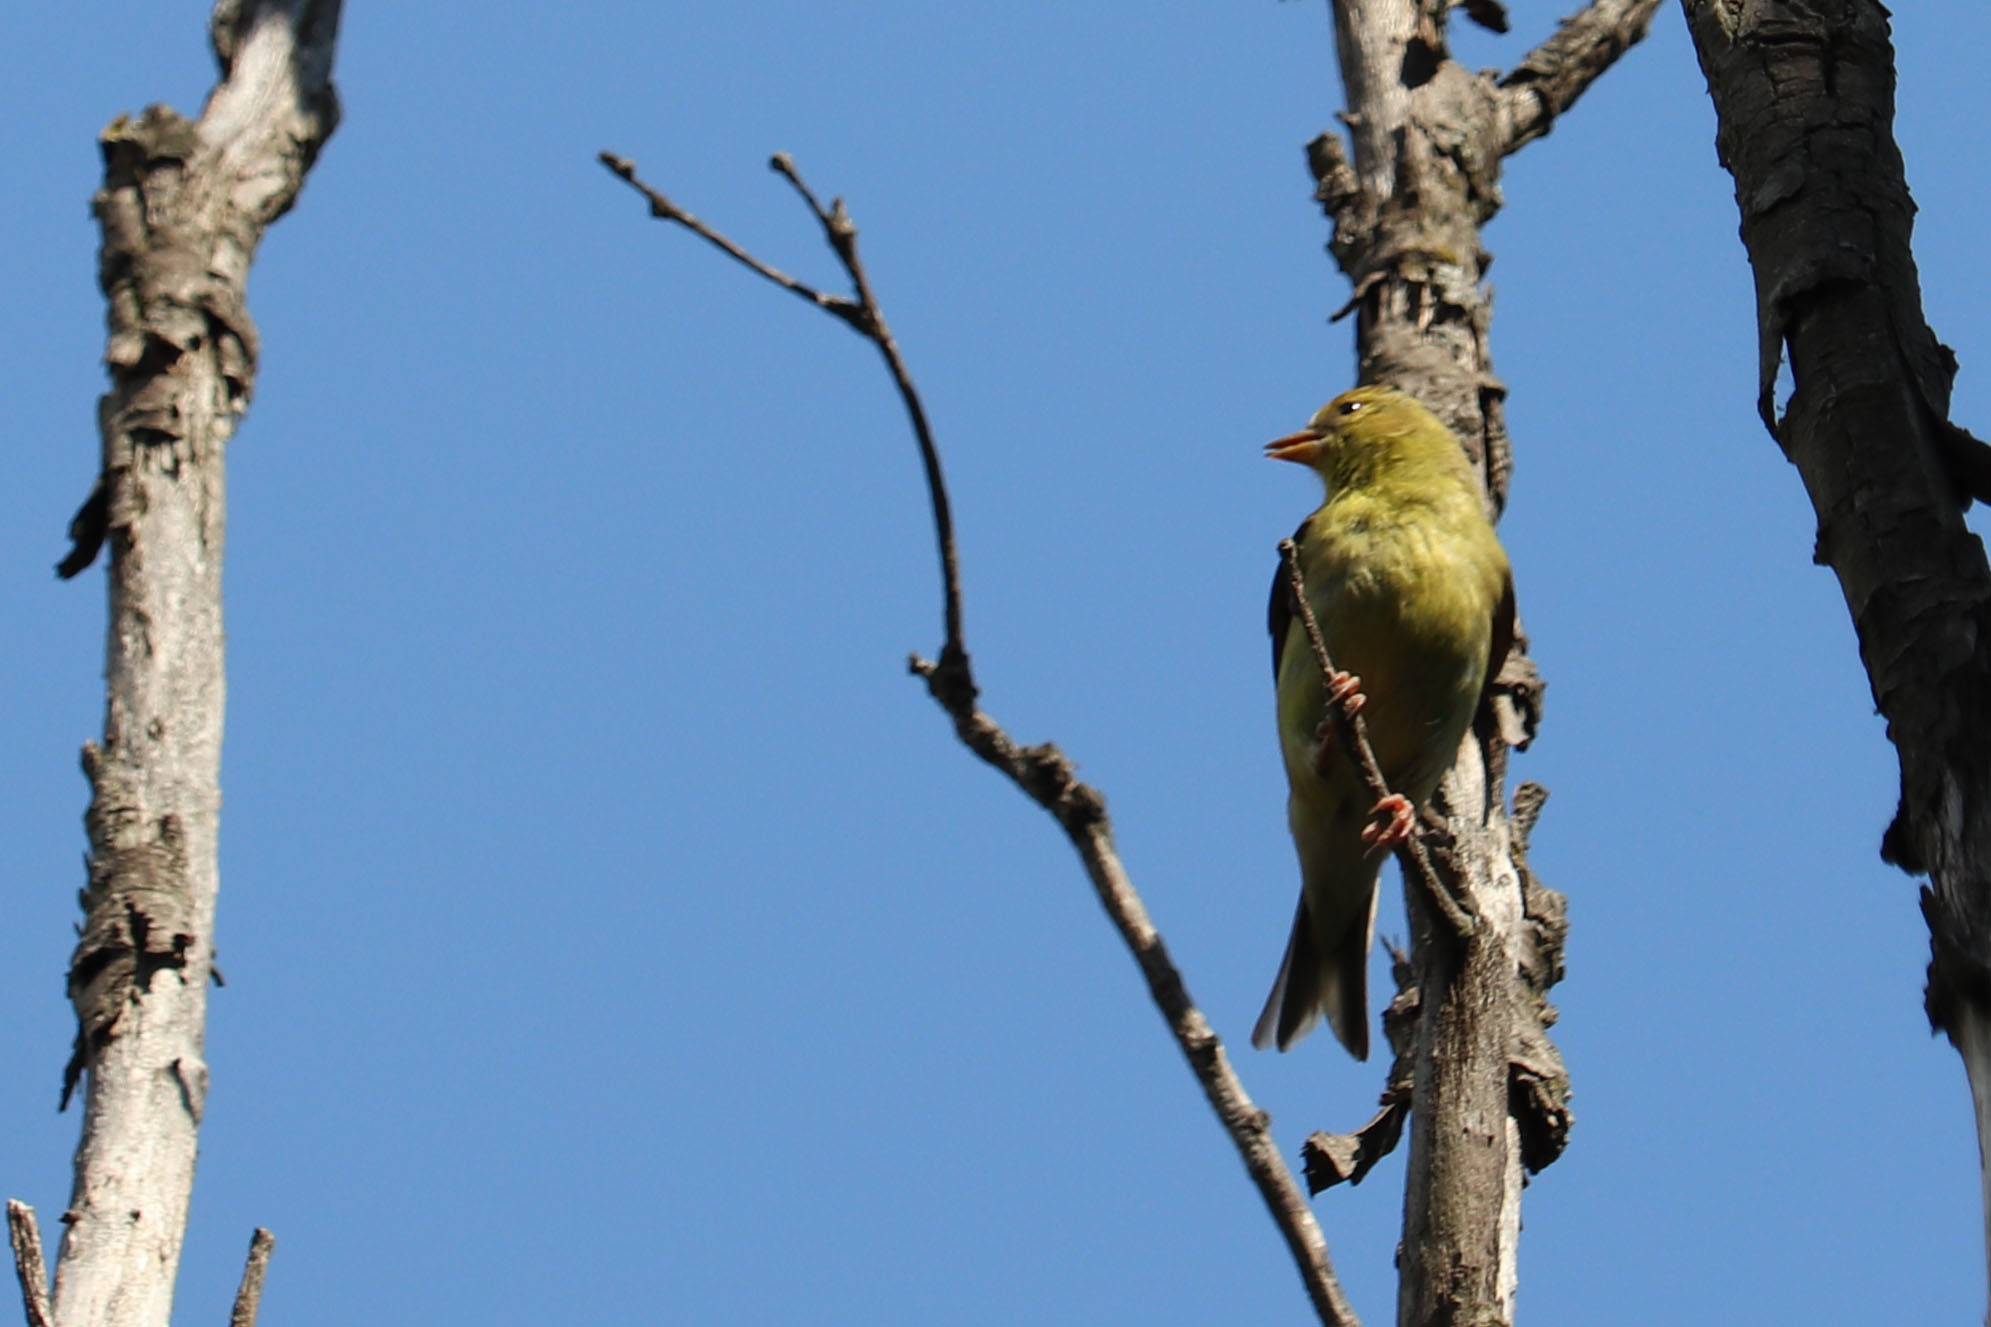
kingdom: Animalia
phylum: Chordata
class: Aves
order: Passeriformes
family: Fringillidae
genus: Spinus
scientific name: Spinus tristis
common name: American goldfinch
